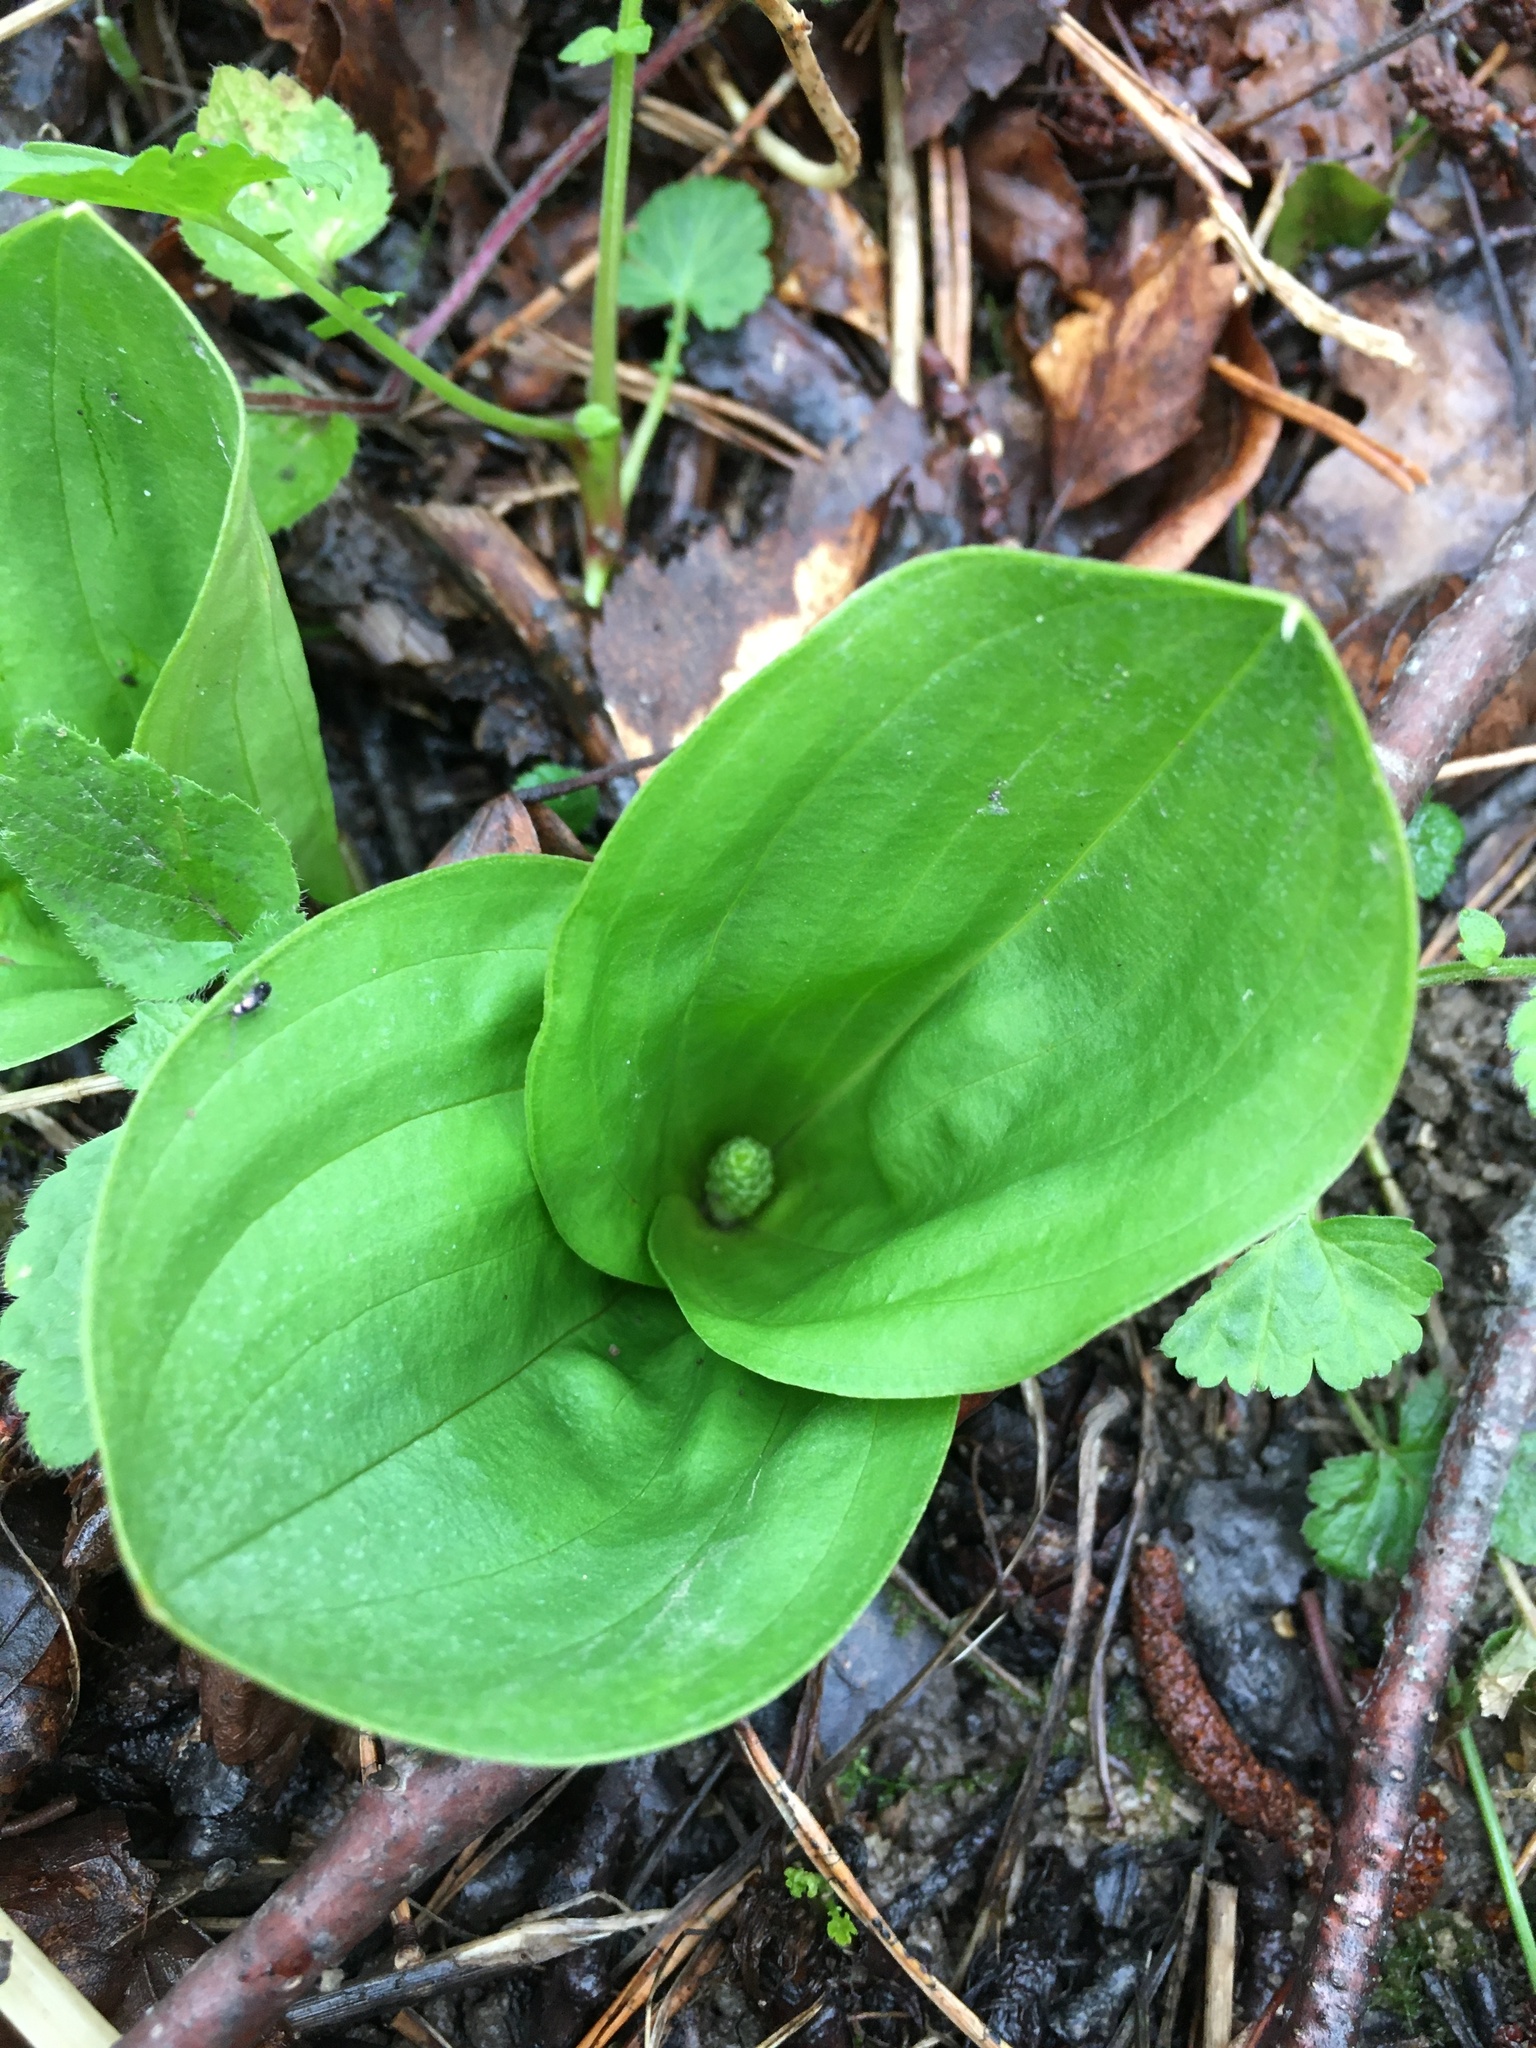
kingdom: Plantae
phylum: Tracheophyta
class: Liliopsida
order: Asparagales
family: Orchidaceae
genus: Neottia
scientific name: Neottia ovata
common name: Common twayblade
